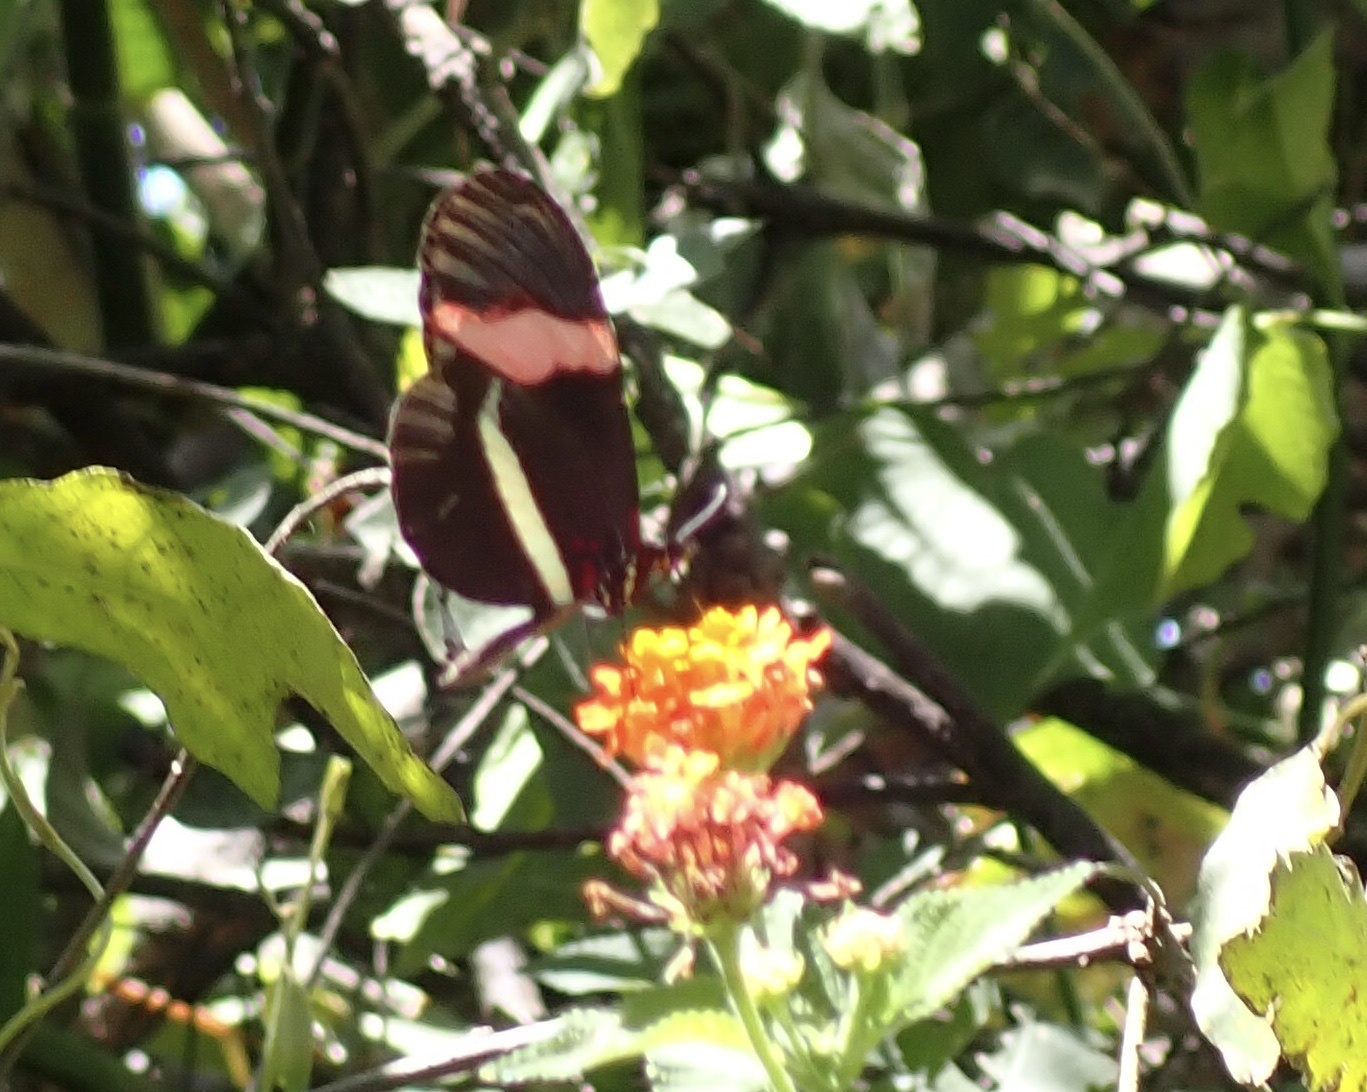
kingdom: Animalia
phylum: Arthropoda
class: Insecta
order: Lepidoptera
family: Nymphalidae
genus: Tirumala
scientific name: Tirumala petiverana
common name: Blue monarch
